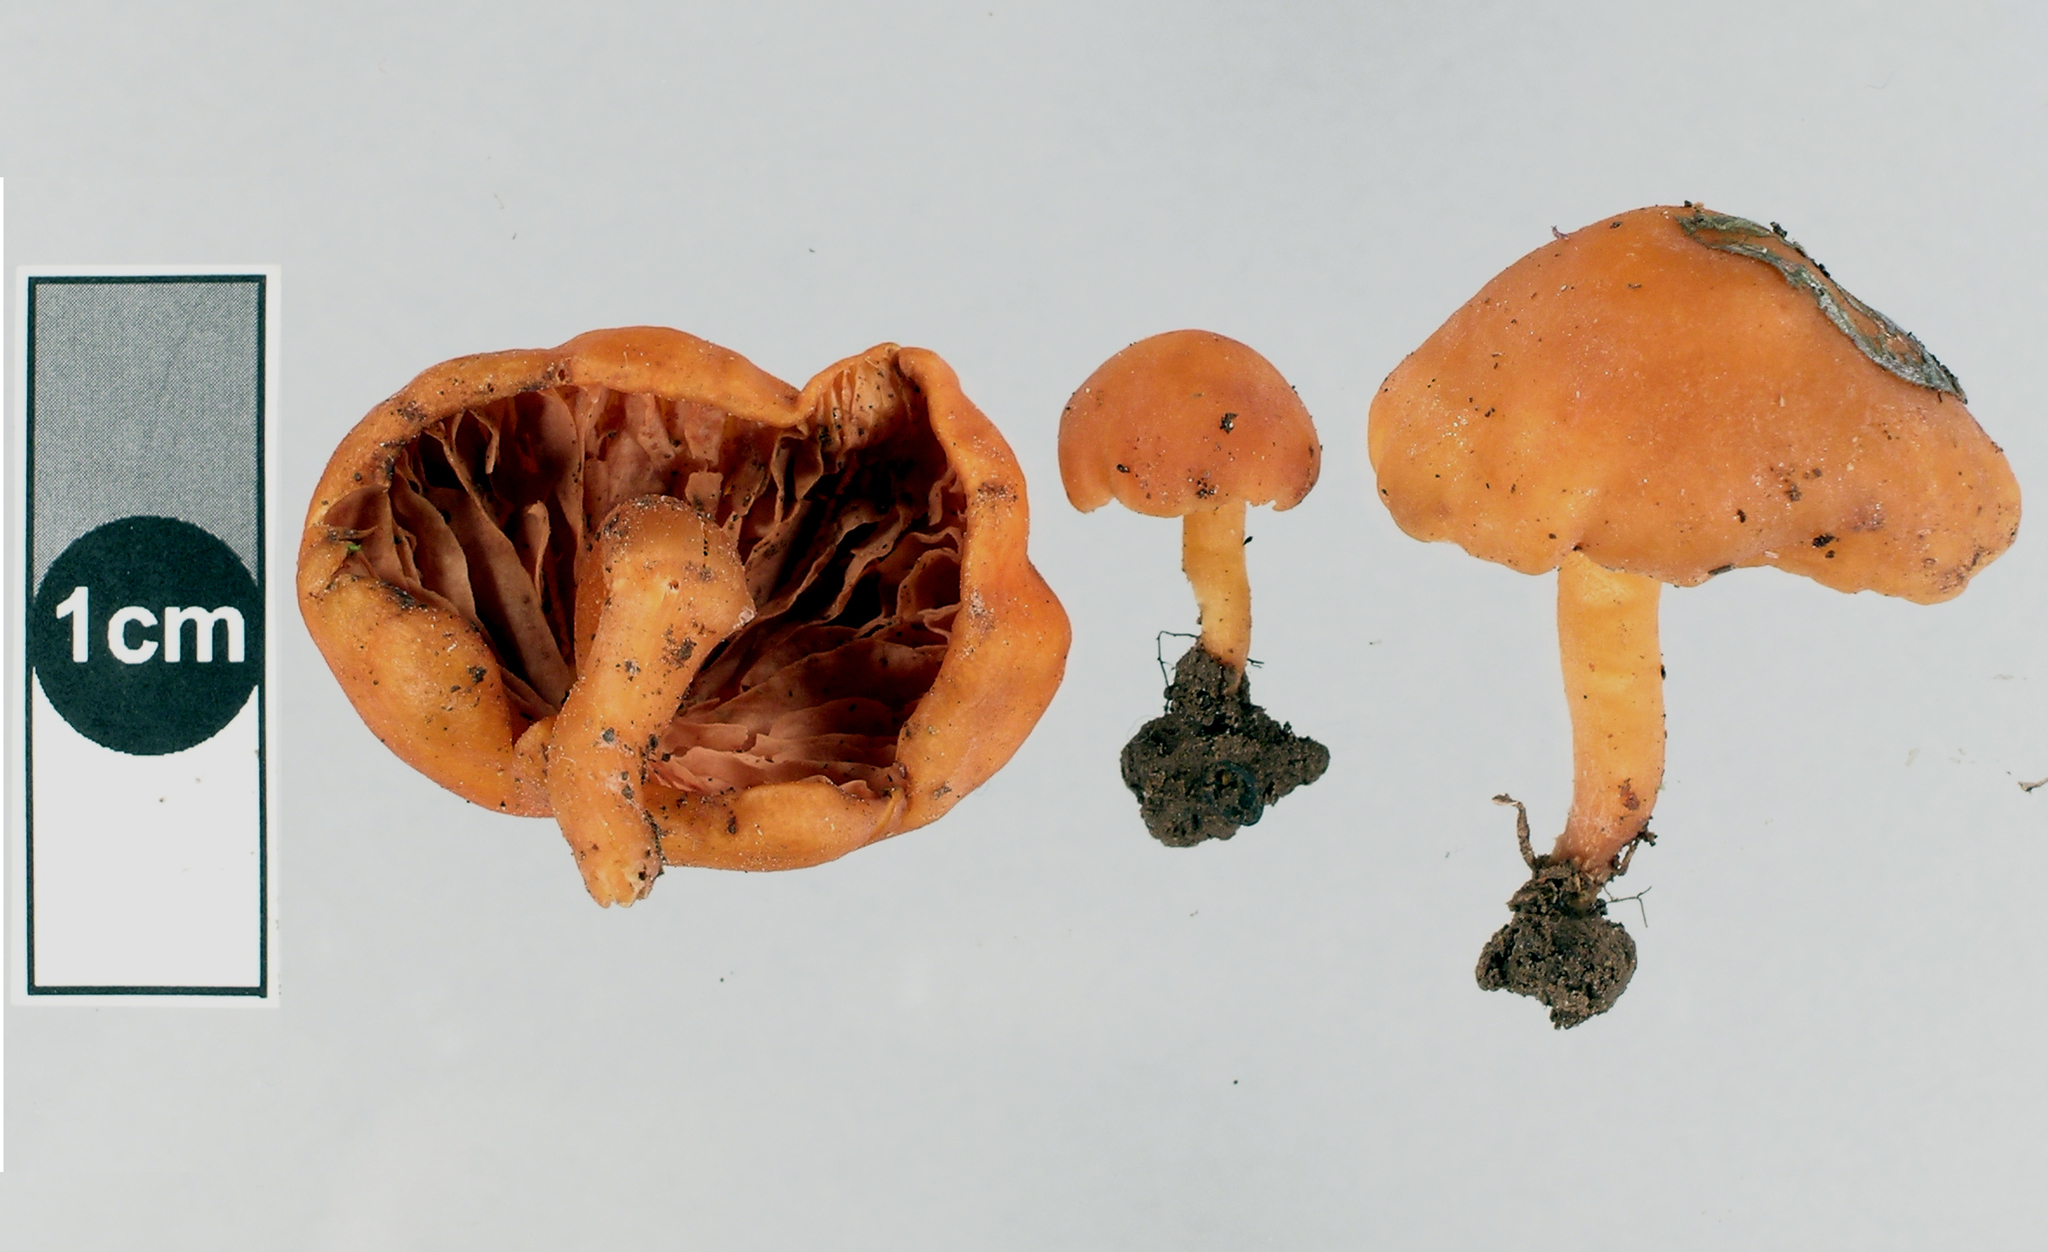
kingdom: Fungi
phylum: Basidiomycota
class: Agaricomycetes
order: Agaricales
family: Macrocystidiaceae
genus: Macrocystidia
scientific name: Macrocystidia reducta
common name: The fishy pouch
